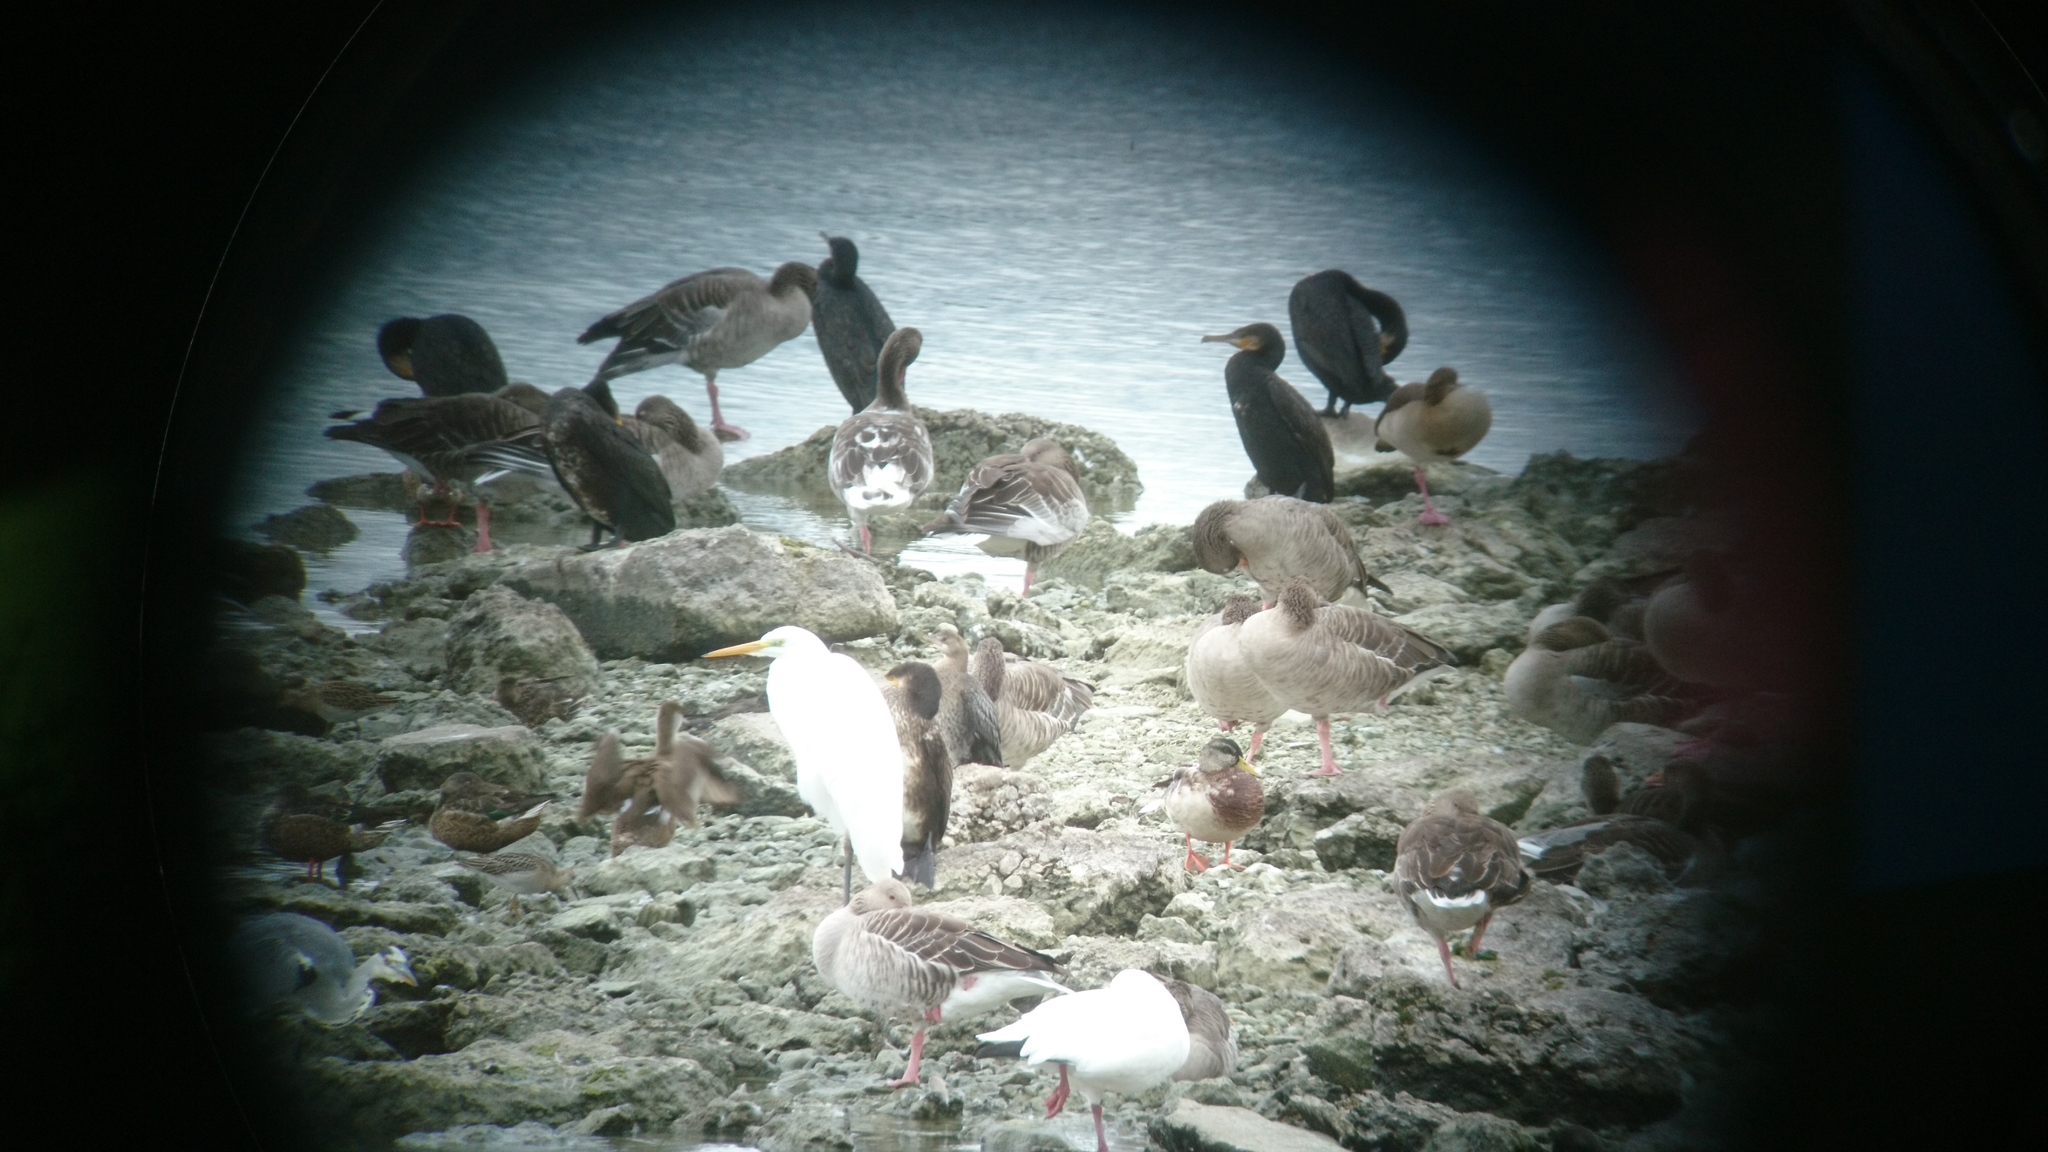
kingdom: Animalia
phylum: Chordata
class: Aves
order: Suliformes
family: Phalacrocoracidae
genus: Microcarbo
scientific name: Microcarbo pygmaeus
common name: Pygmy cormorant
